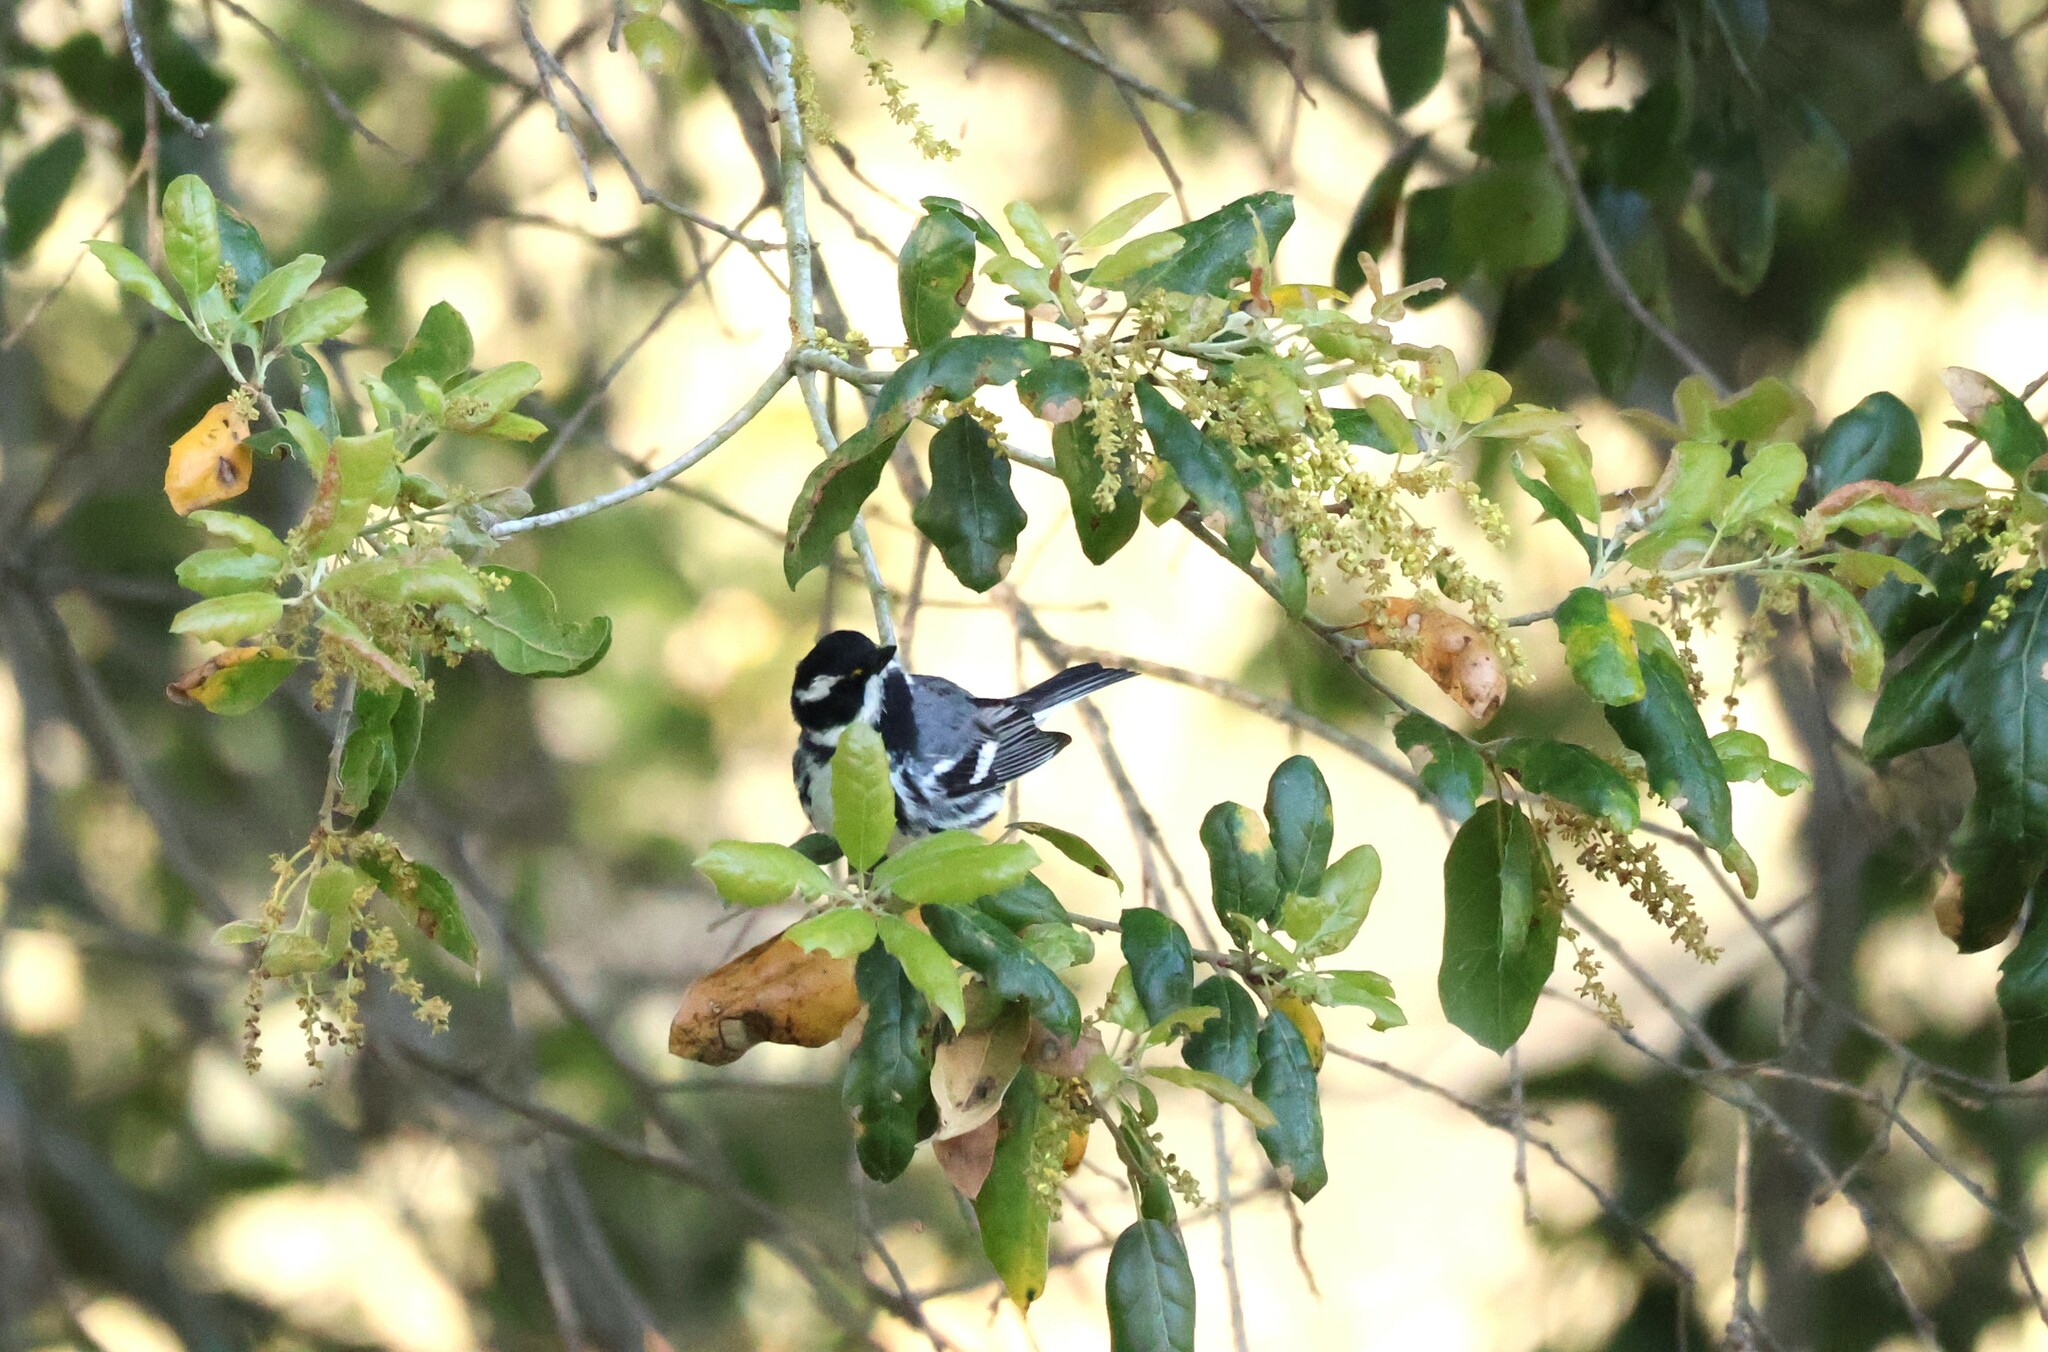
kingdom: Animalia
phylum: Chordata
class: Aves
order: Passeriformes
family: Parulidae
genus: Setophaga
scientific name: Setophaga nigrescens
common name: Black-throated gray warbler
